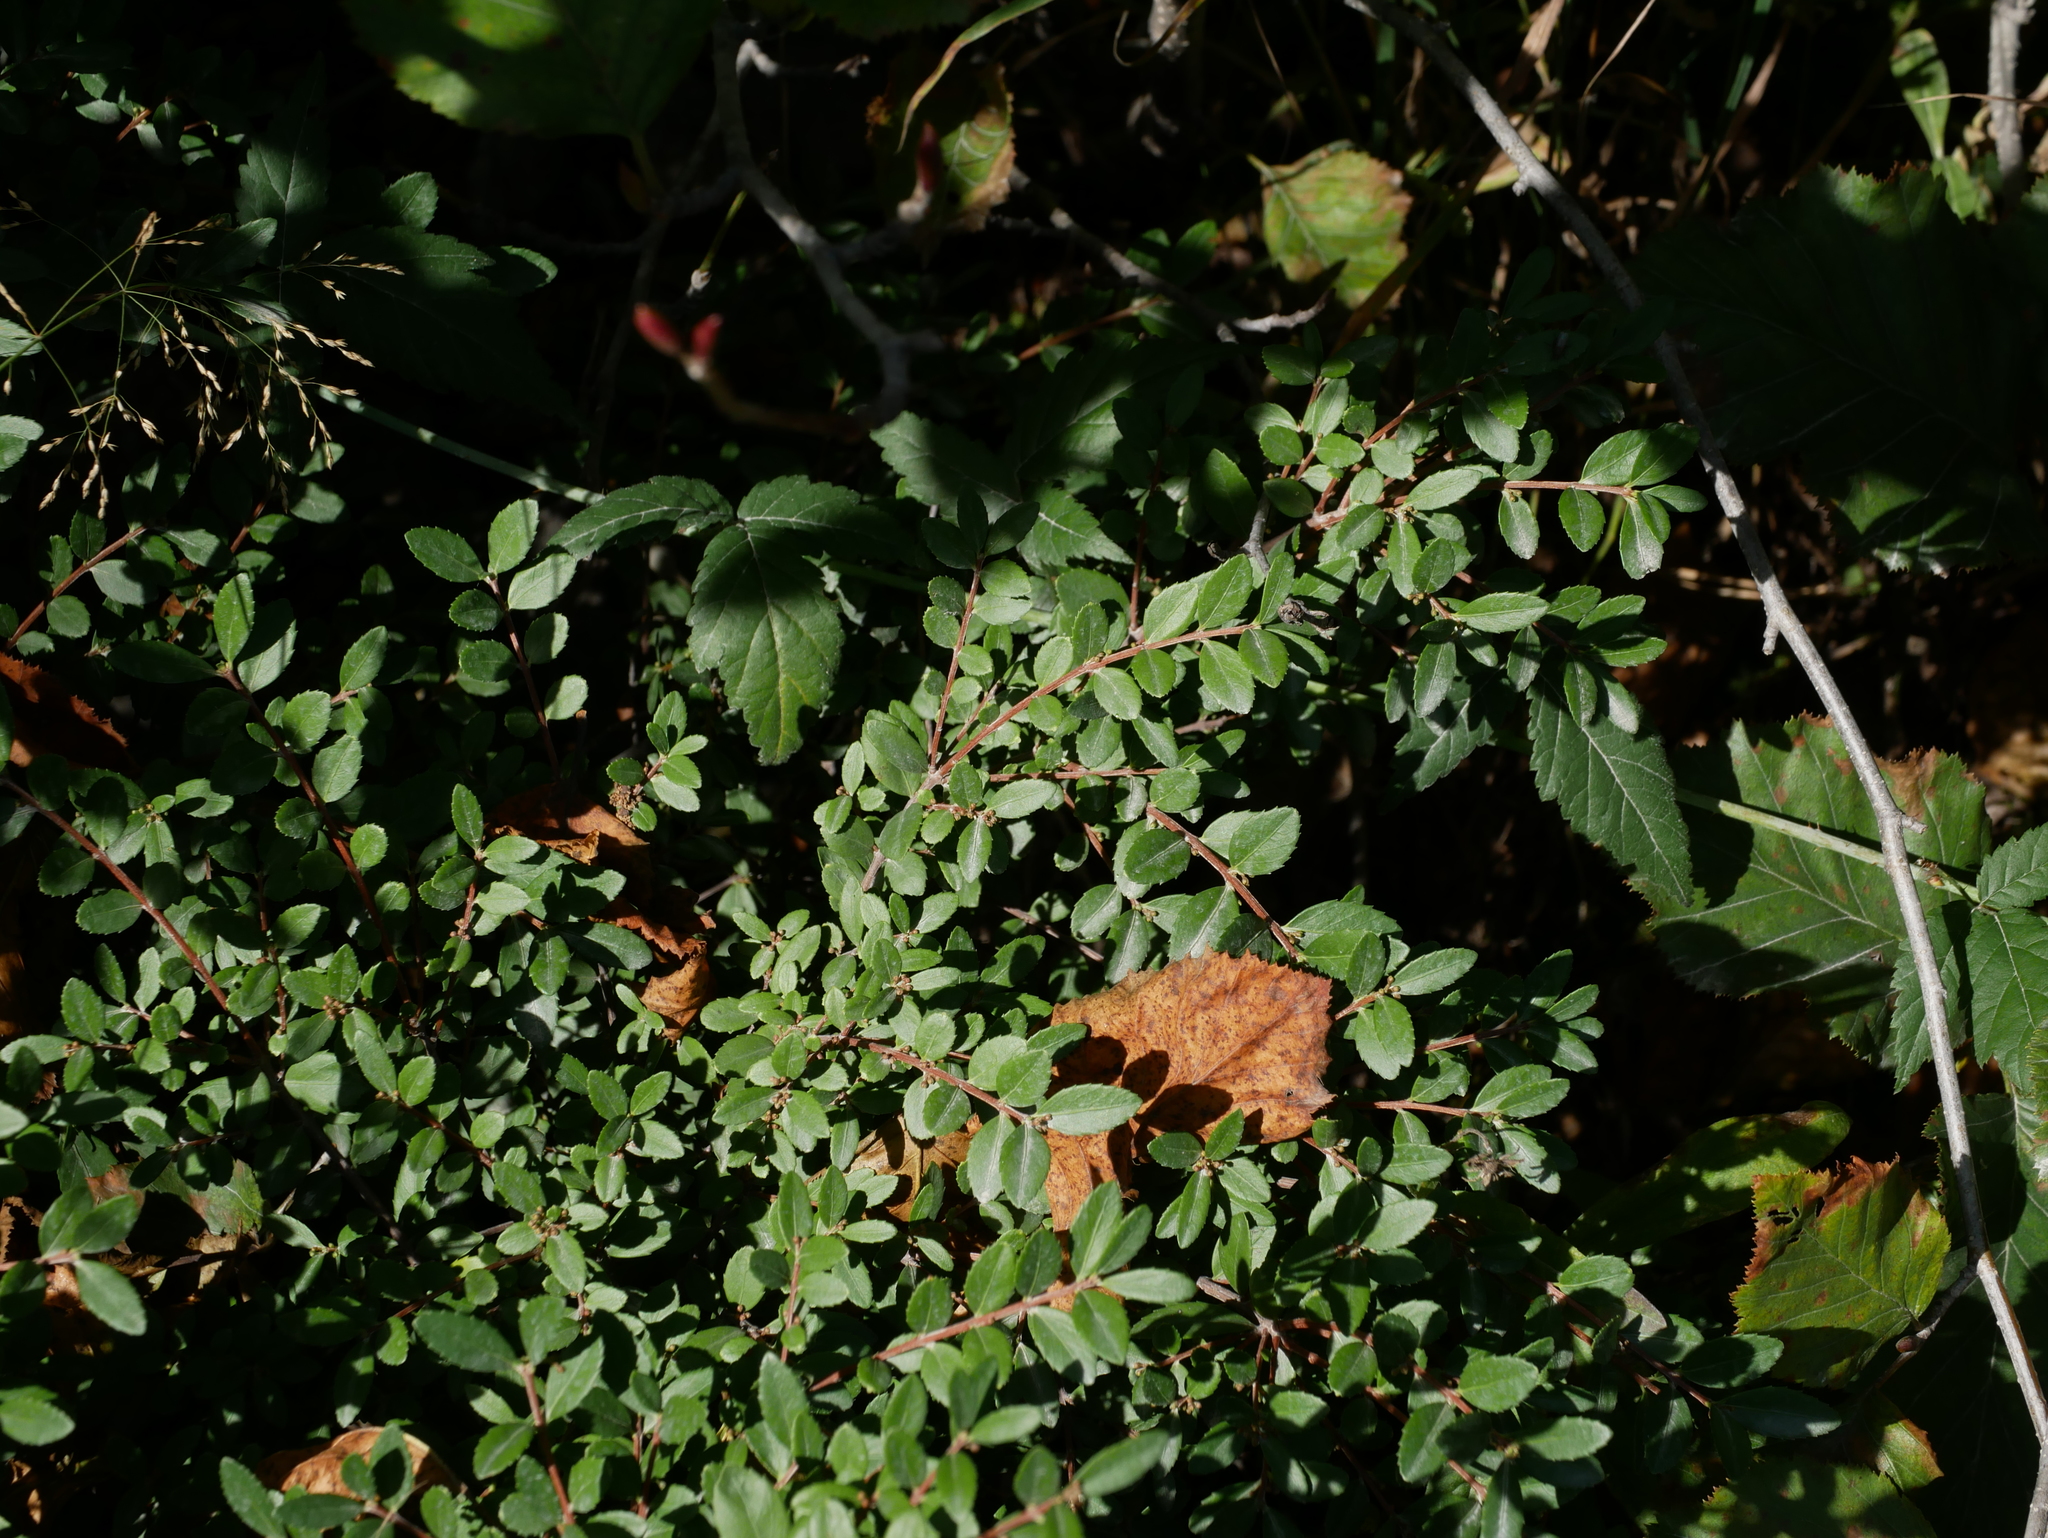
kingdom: Plantae
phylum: Tracheophyta
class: Magnoliopsida
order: Celastrales
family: Celastraceae
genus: Paxistima
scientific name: Paxistima myrsinites
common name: Mountain-lover
